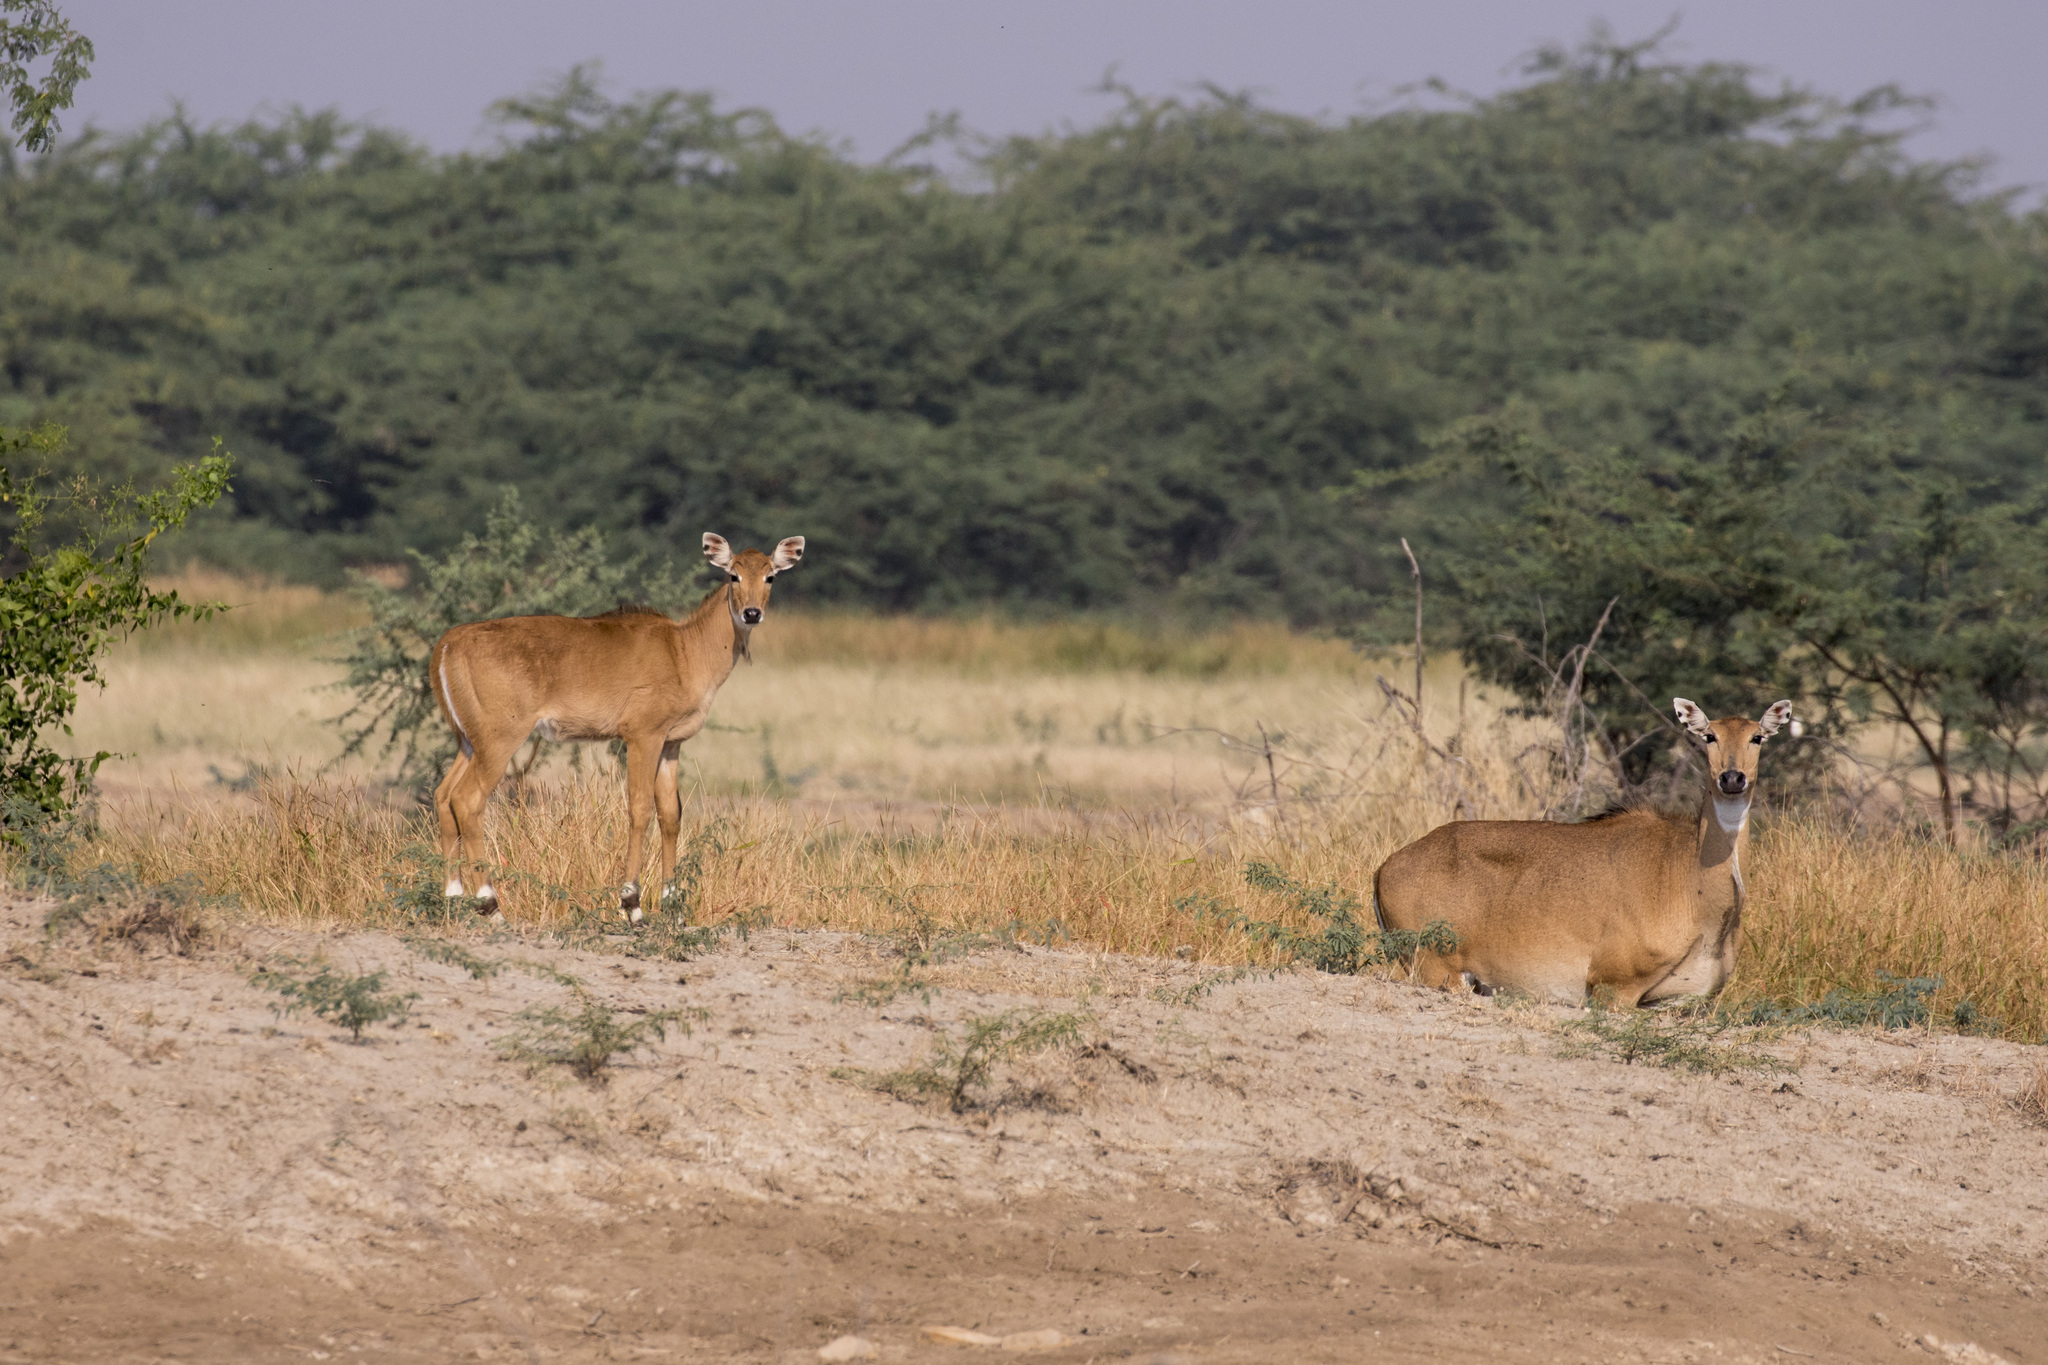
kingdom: Animalia
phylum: Chordata
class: Mammalia
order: Artiodactyla
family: Bovidae
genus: Boselaphus
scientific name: Boselaphus tragocamelus
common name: Nilgai
